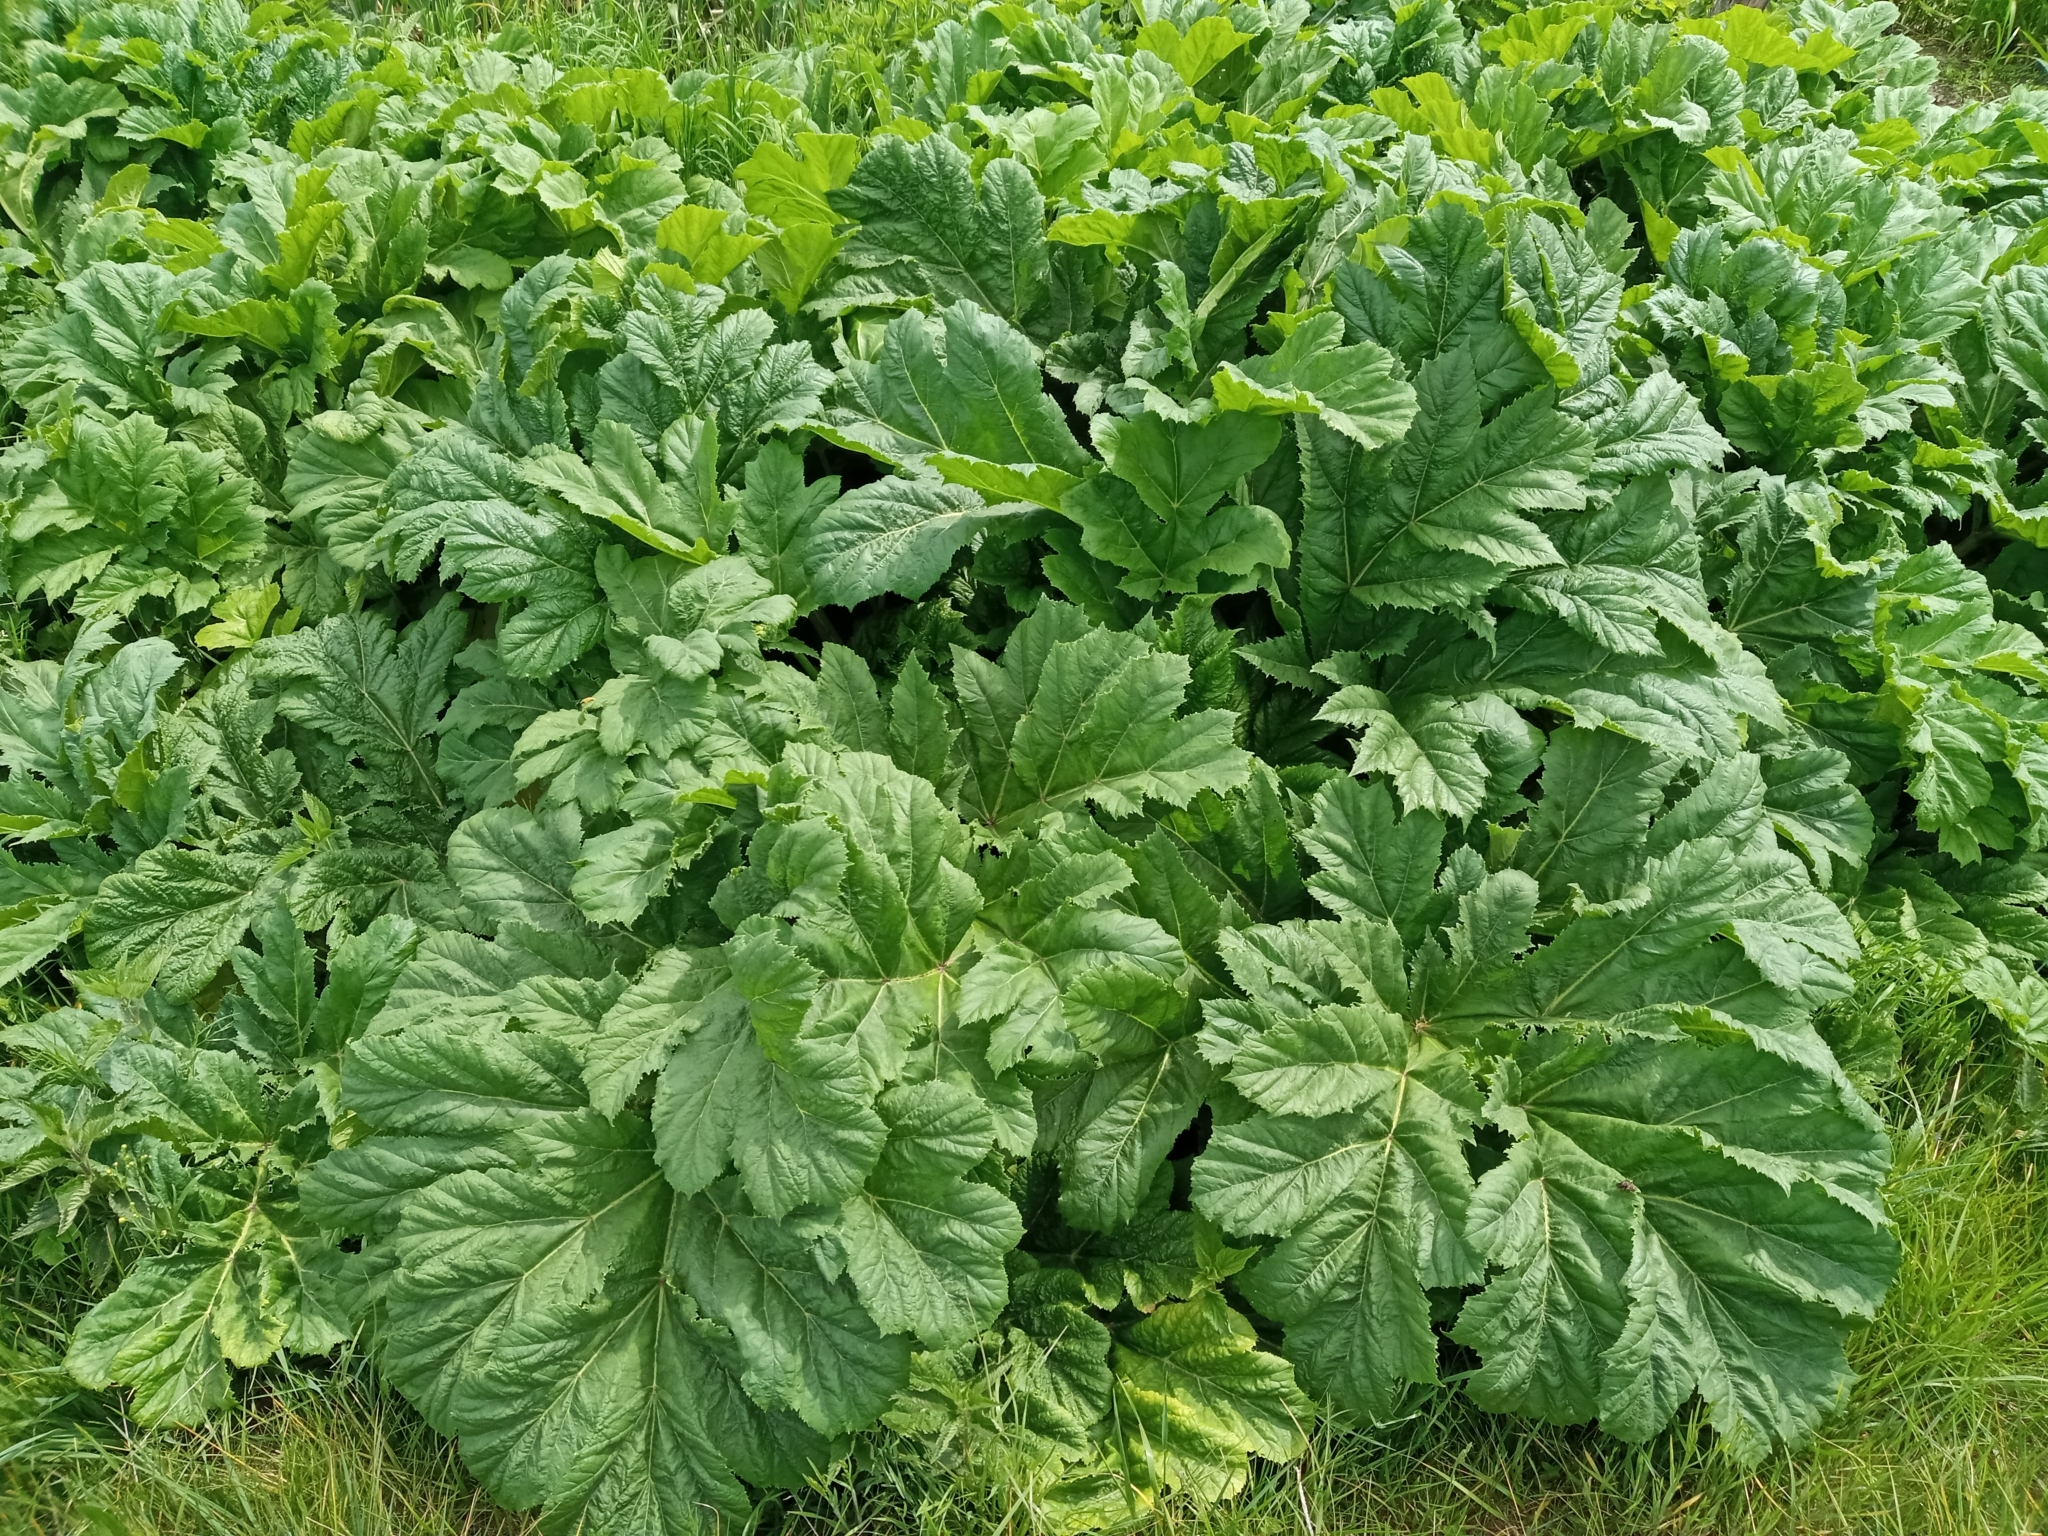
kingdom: Plantae
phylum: Tracheophyta
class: Magnoliopsida
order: Apiales
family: Apiaceae
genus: Heracleum
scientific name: Heracleum sosnowskyi
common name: Sosnowsky's hogweed
